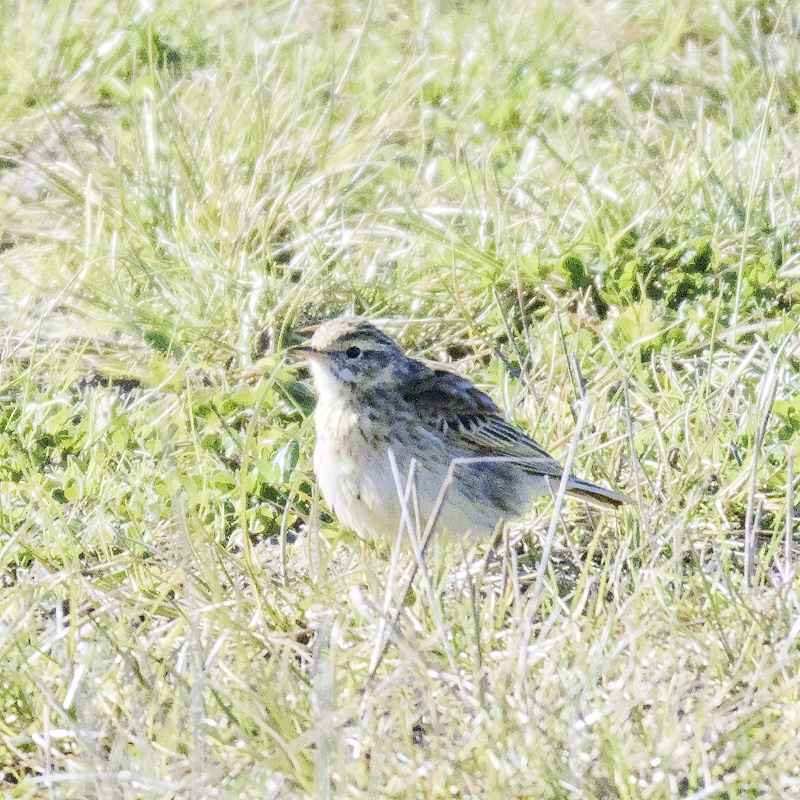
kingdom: Animalia
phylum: Chordata
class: Aves
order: Passeriformes
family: Motacillidae
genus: Anthus
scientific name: Anthus australis
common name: Australian pipit
